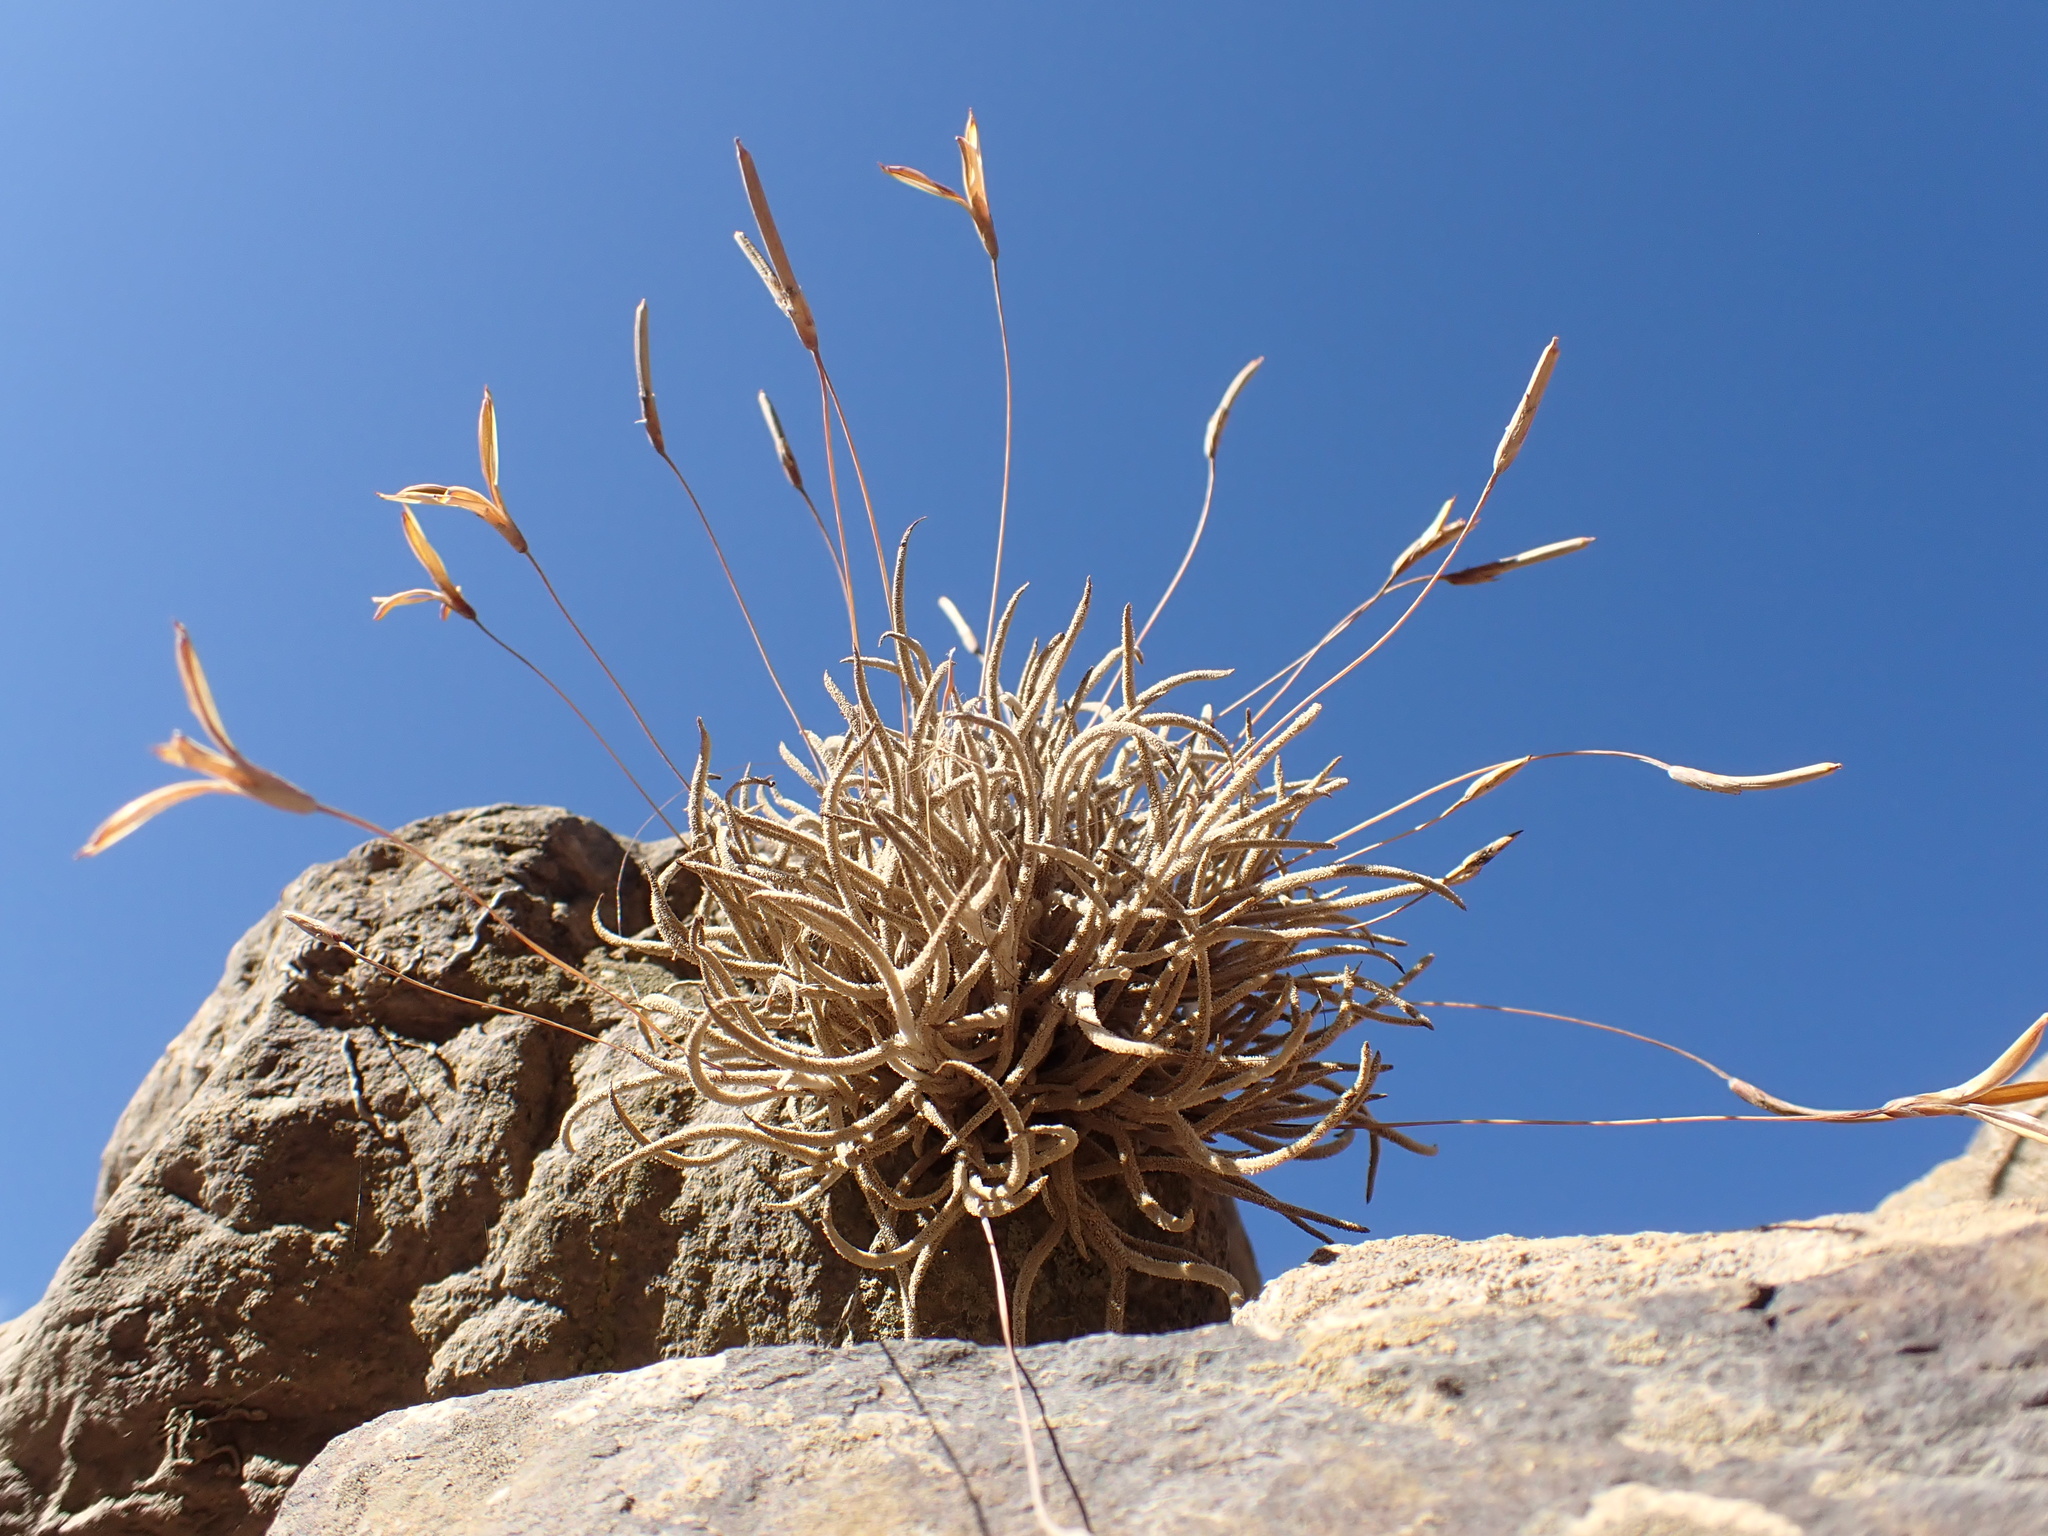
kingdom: Plantae
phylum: Tracheophyta
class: Liliopsida
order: Poales
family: Bromeliaceae
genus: Tillandsia
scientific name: Tillandsia capillaris
